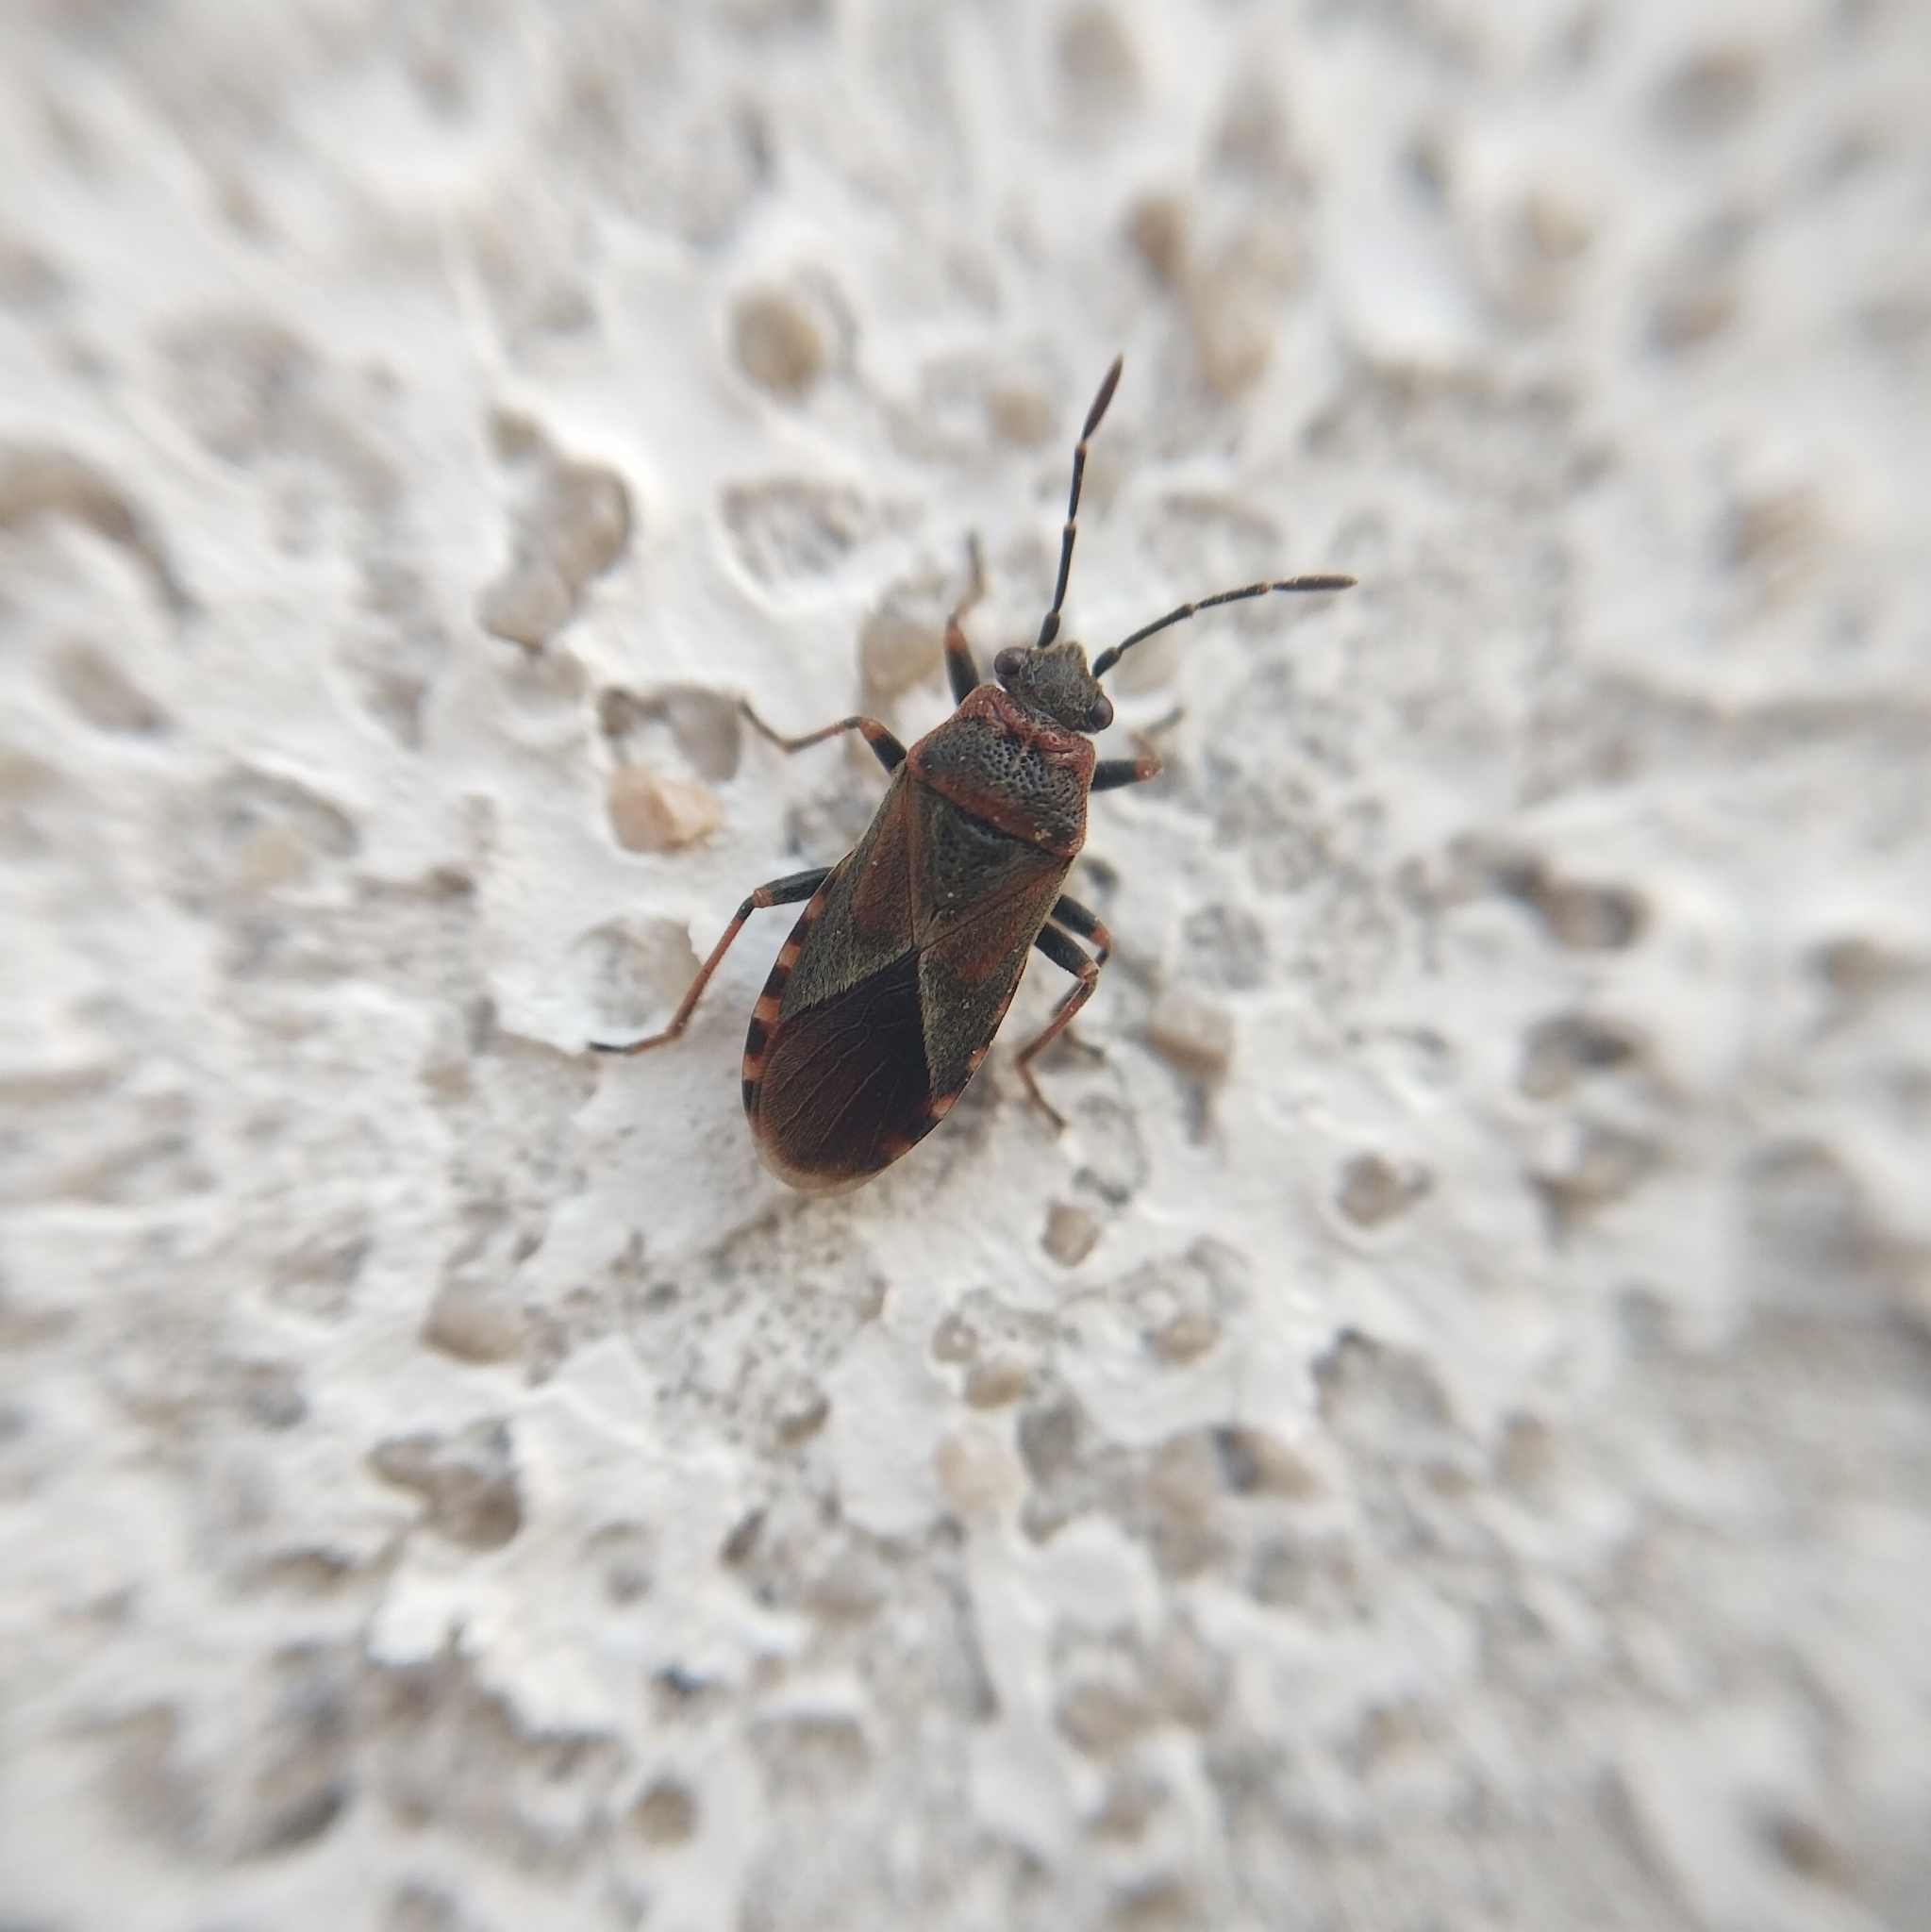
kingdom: Animalia
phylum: Arthropoda
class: Insecta
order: Hemiptera
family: Lygaeidae
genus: Arocatus
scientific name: Arocatus melanocephalus
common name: Lygaeid bug
